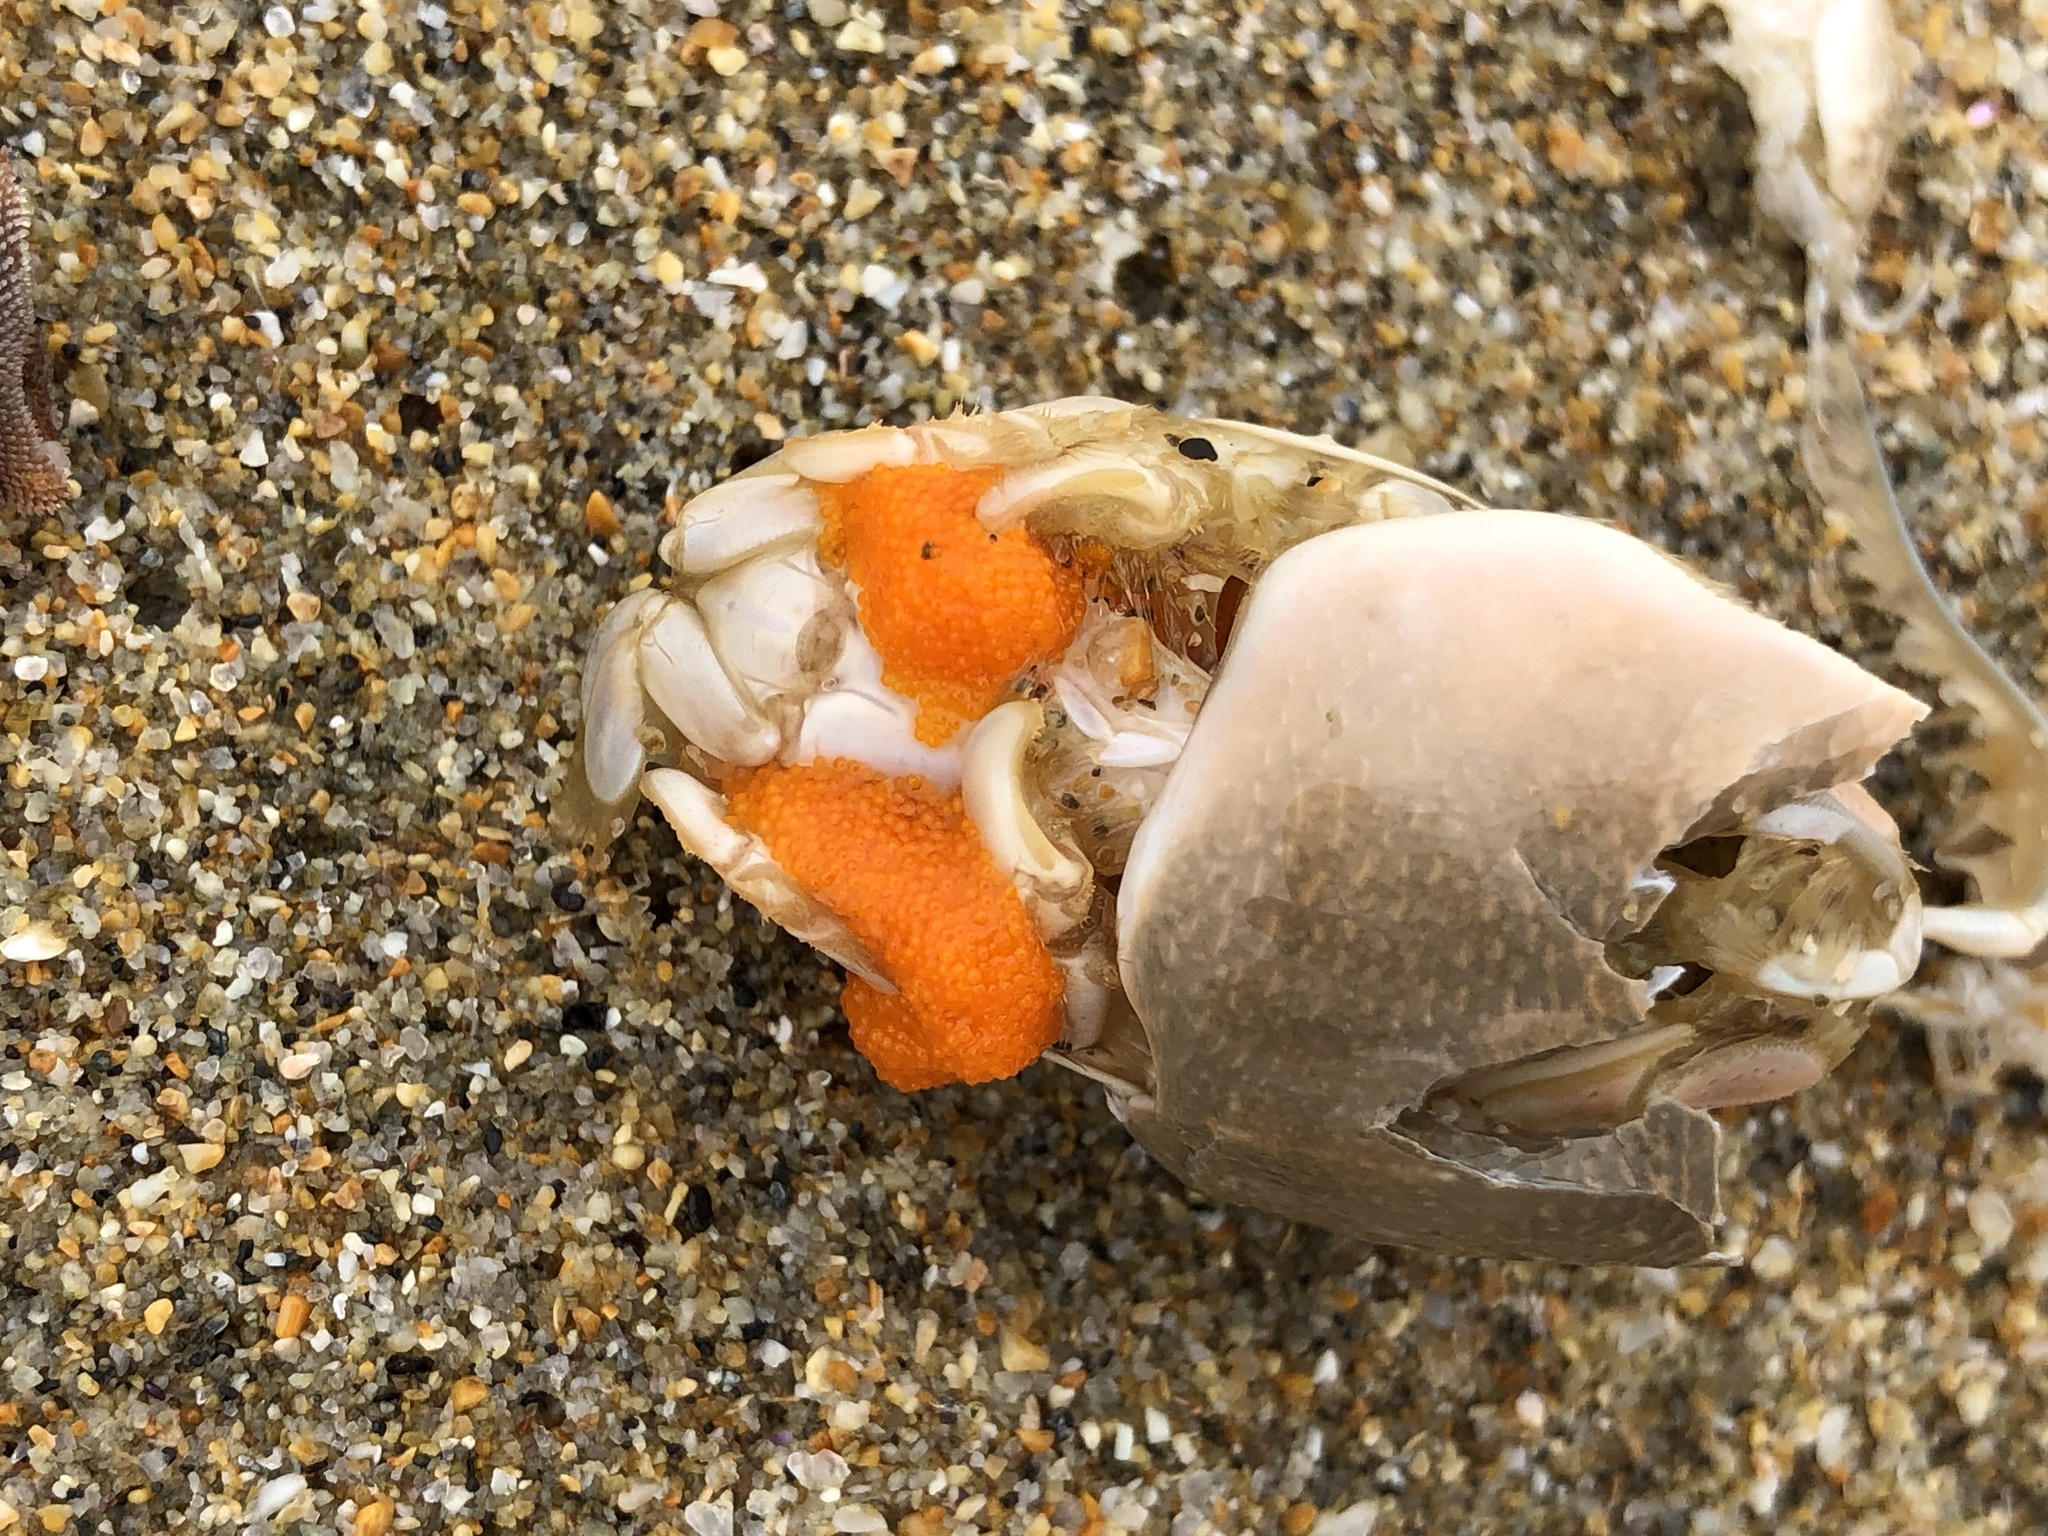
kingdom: Animalia
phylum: Arthropoda
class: Malacostraca
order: Decapoda
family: Hippidae
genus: Emerita
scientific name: Emerita analoga
